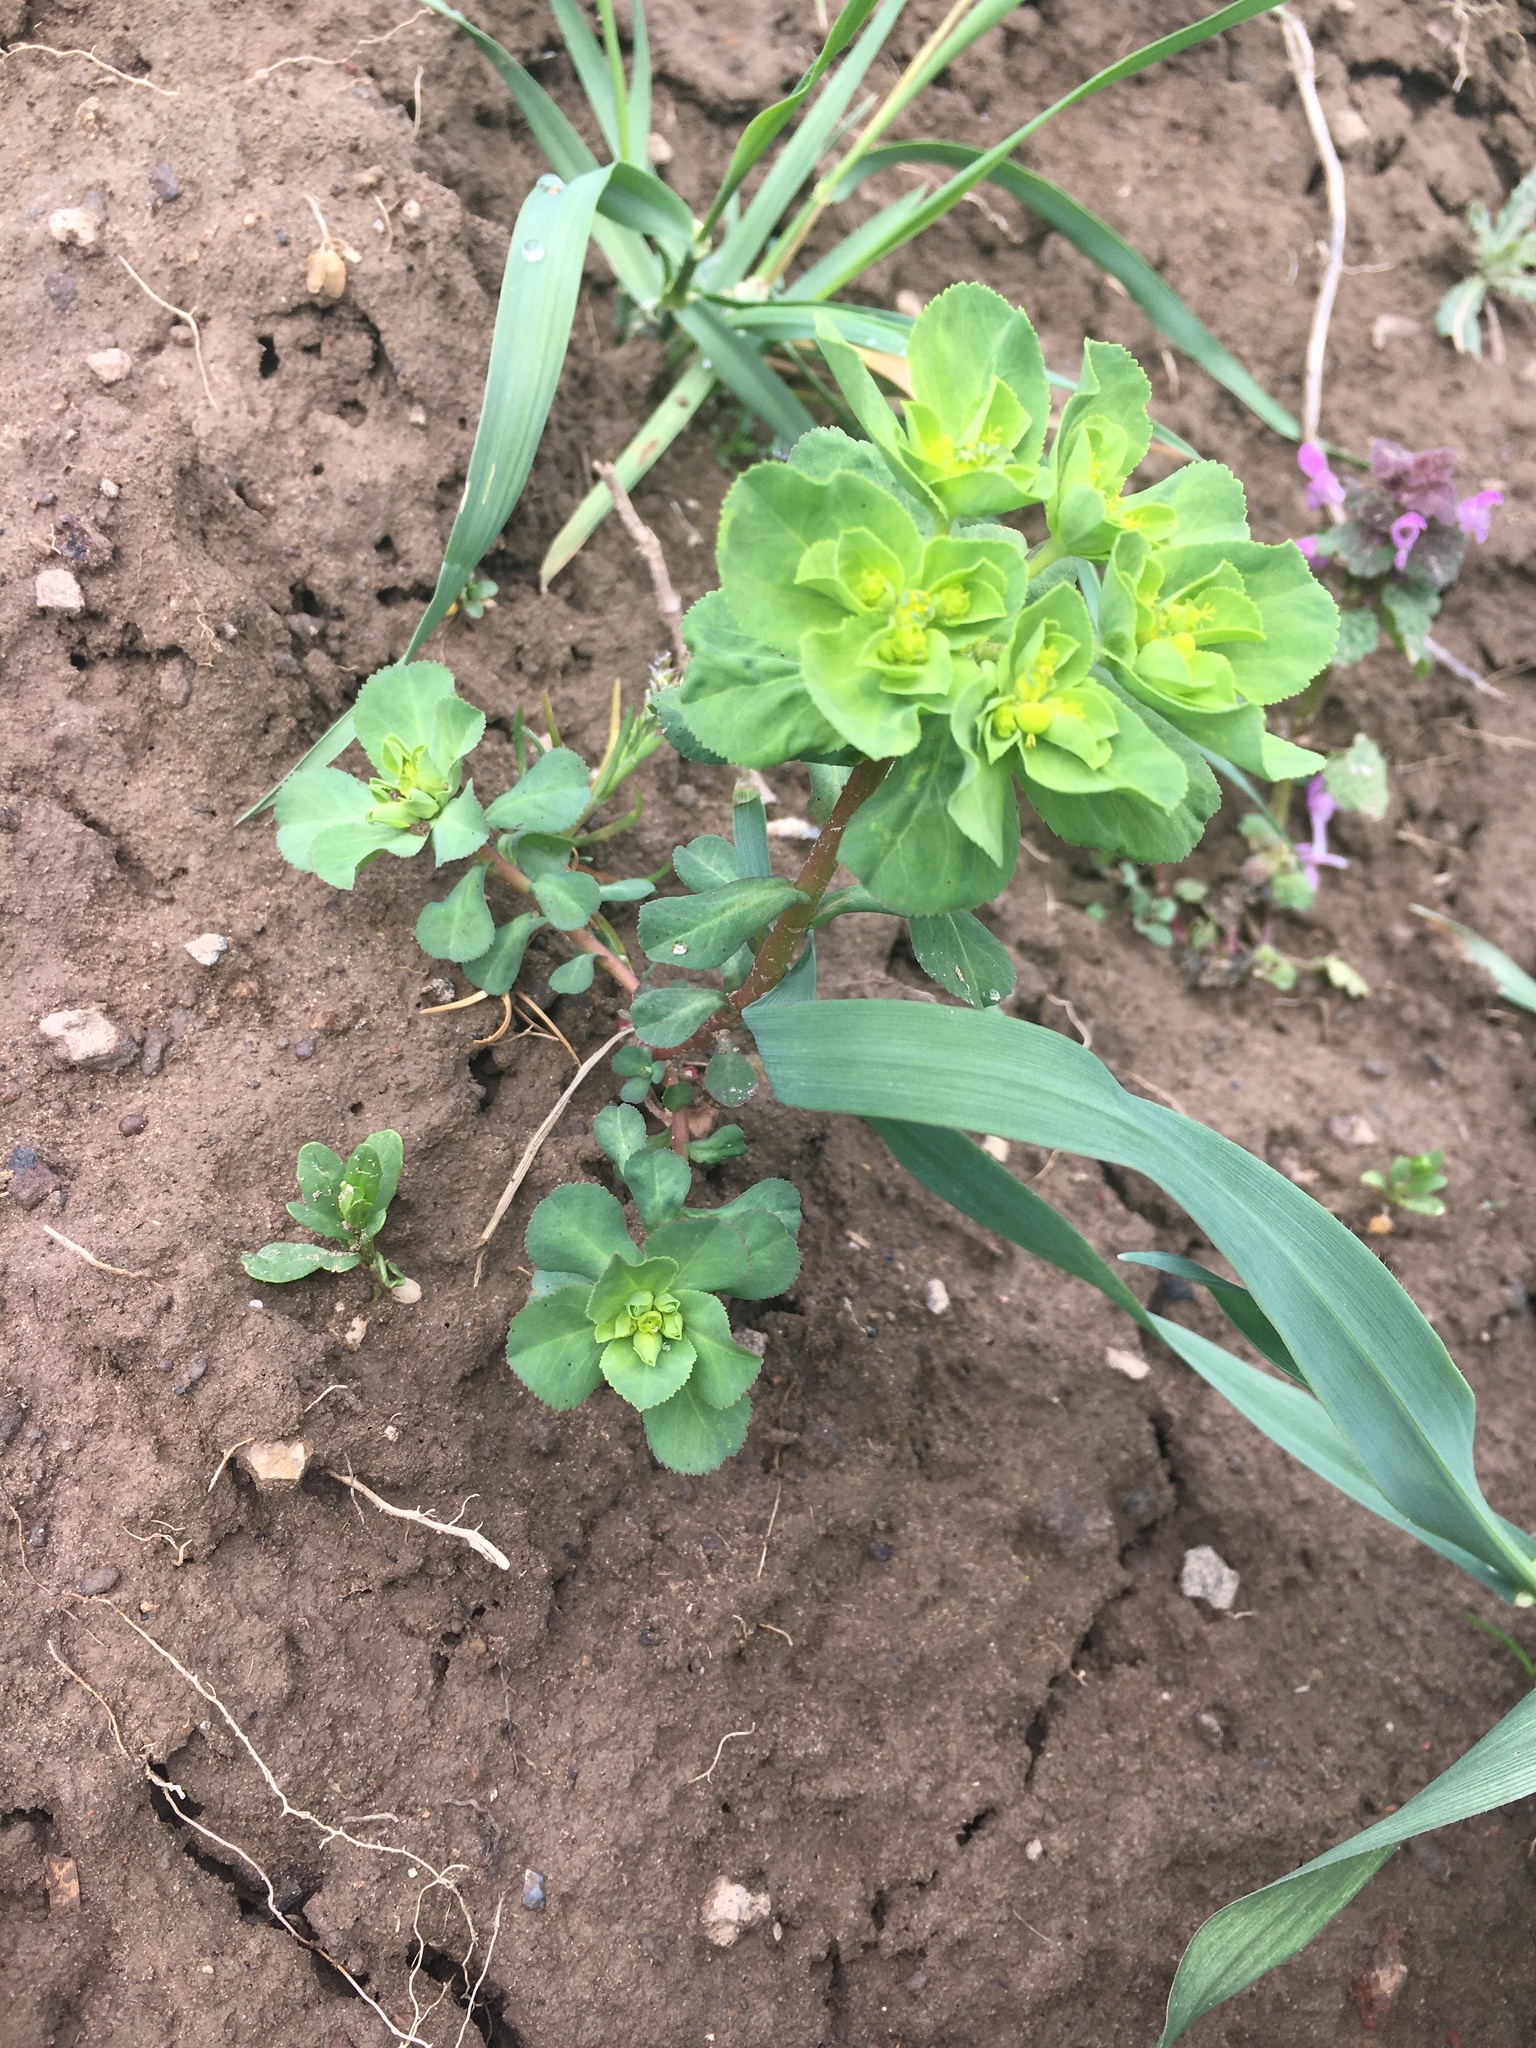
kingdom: Plantae
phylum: Tracheophyta
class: Magnoliopsida
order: Malpighiales
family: Euphorbiaceae
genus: Euphorbia
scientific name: Euphorbia helioscopia
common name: Sun spurge
